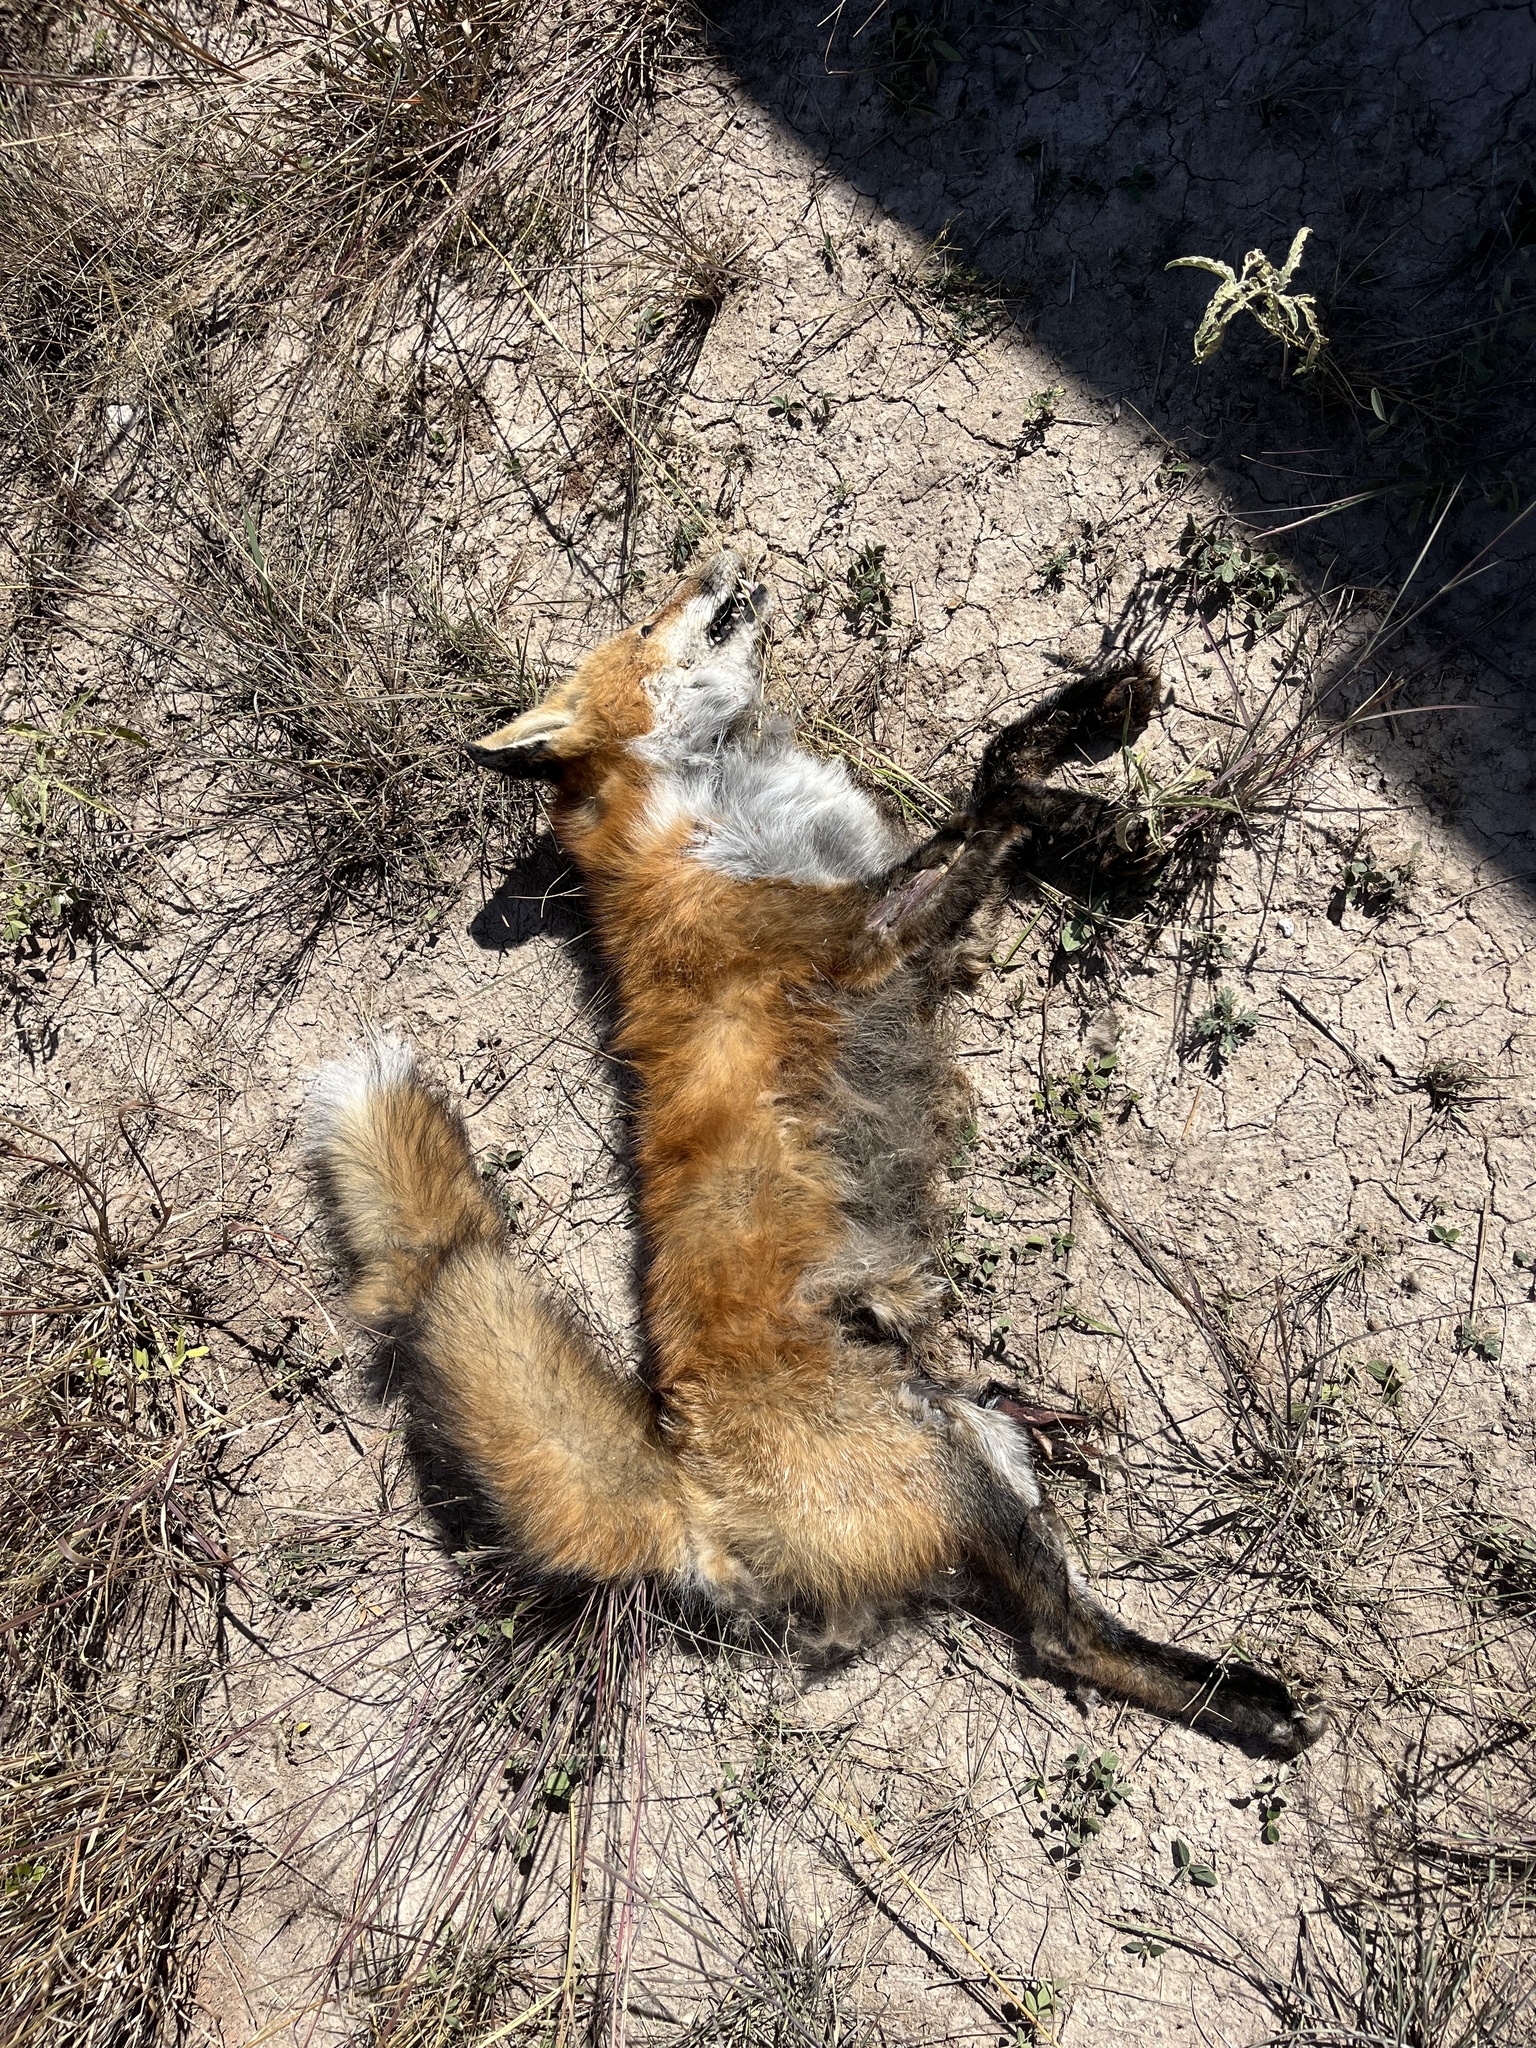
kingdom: Animalia
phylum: Chordata
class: Mammalia
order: Carnivora
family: Canidae
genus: Vulpes
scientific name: Vulpes vulpes
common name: Red fox
